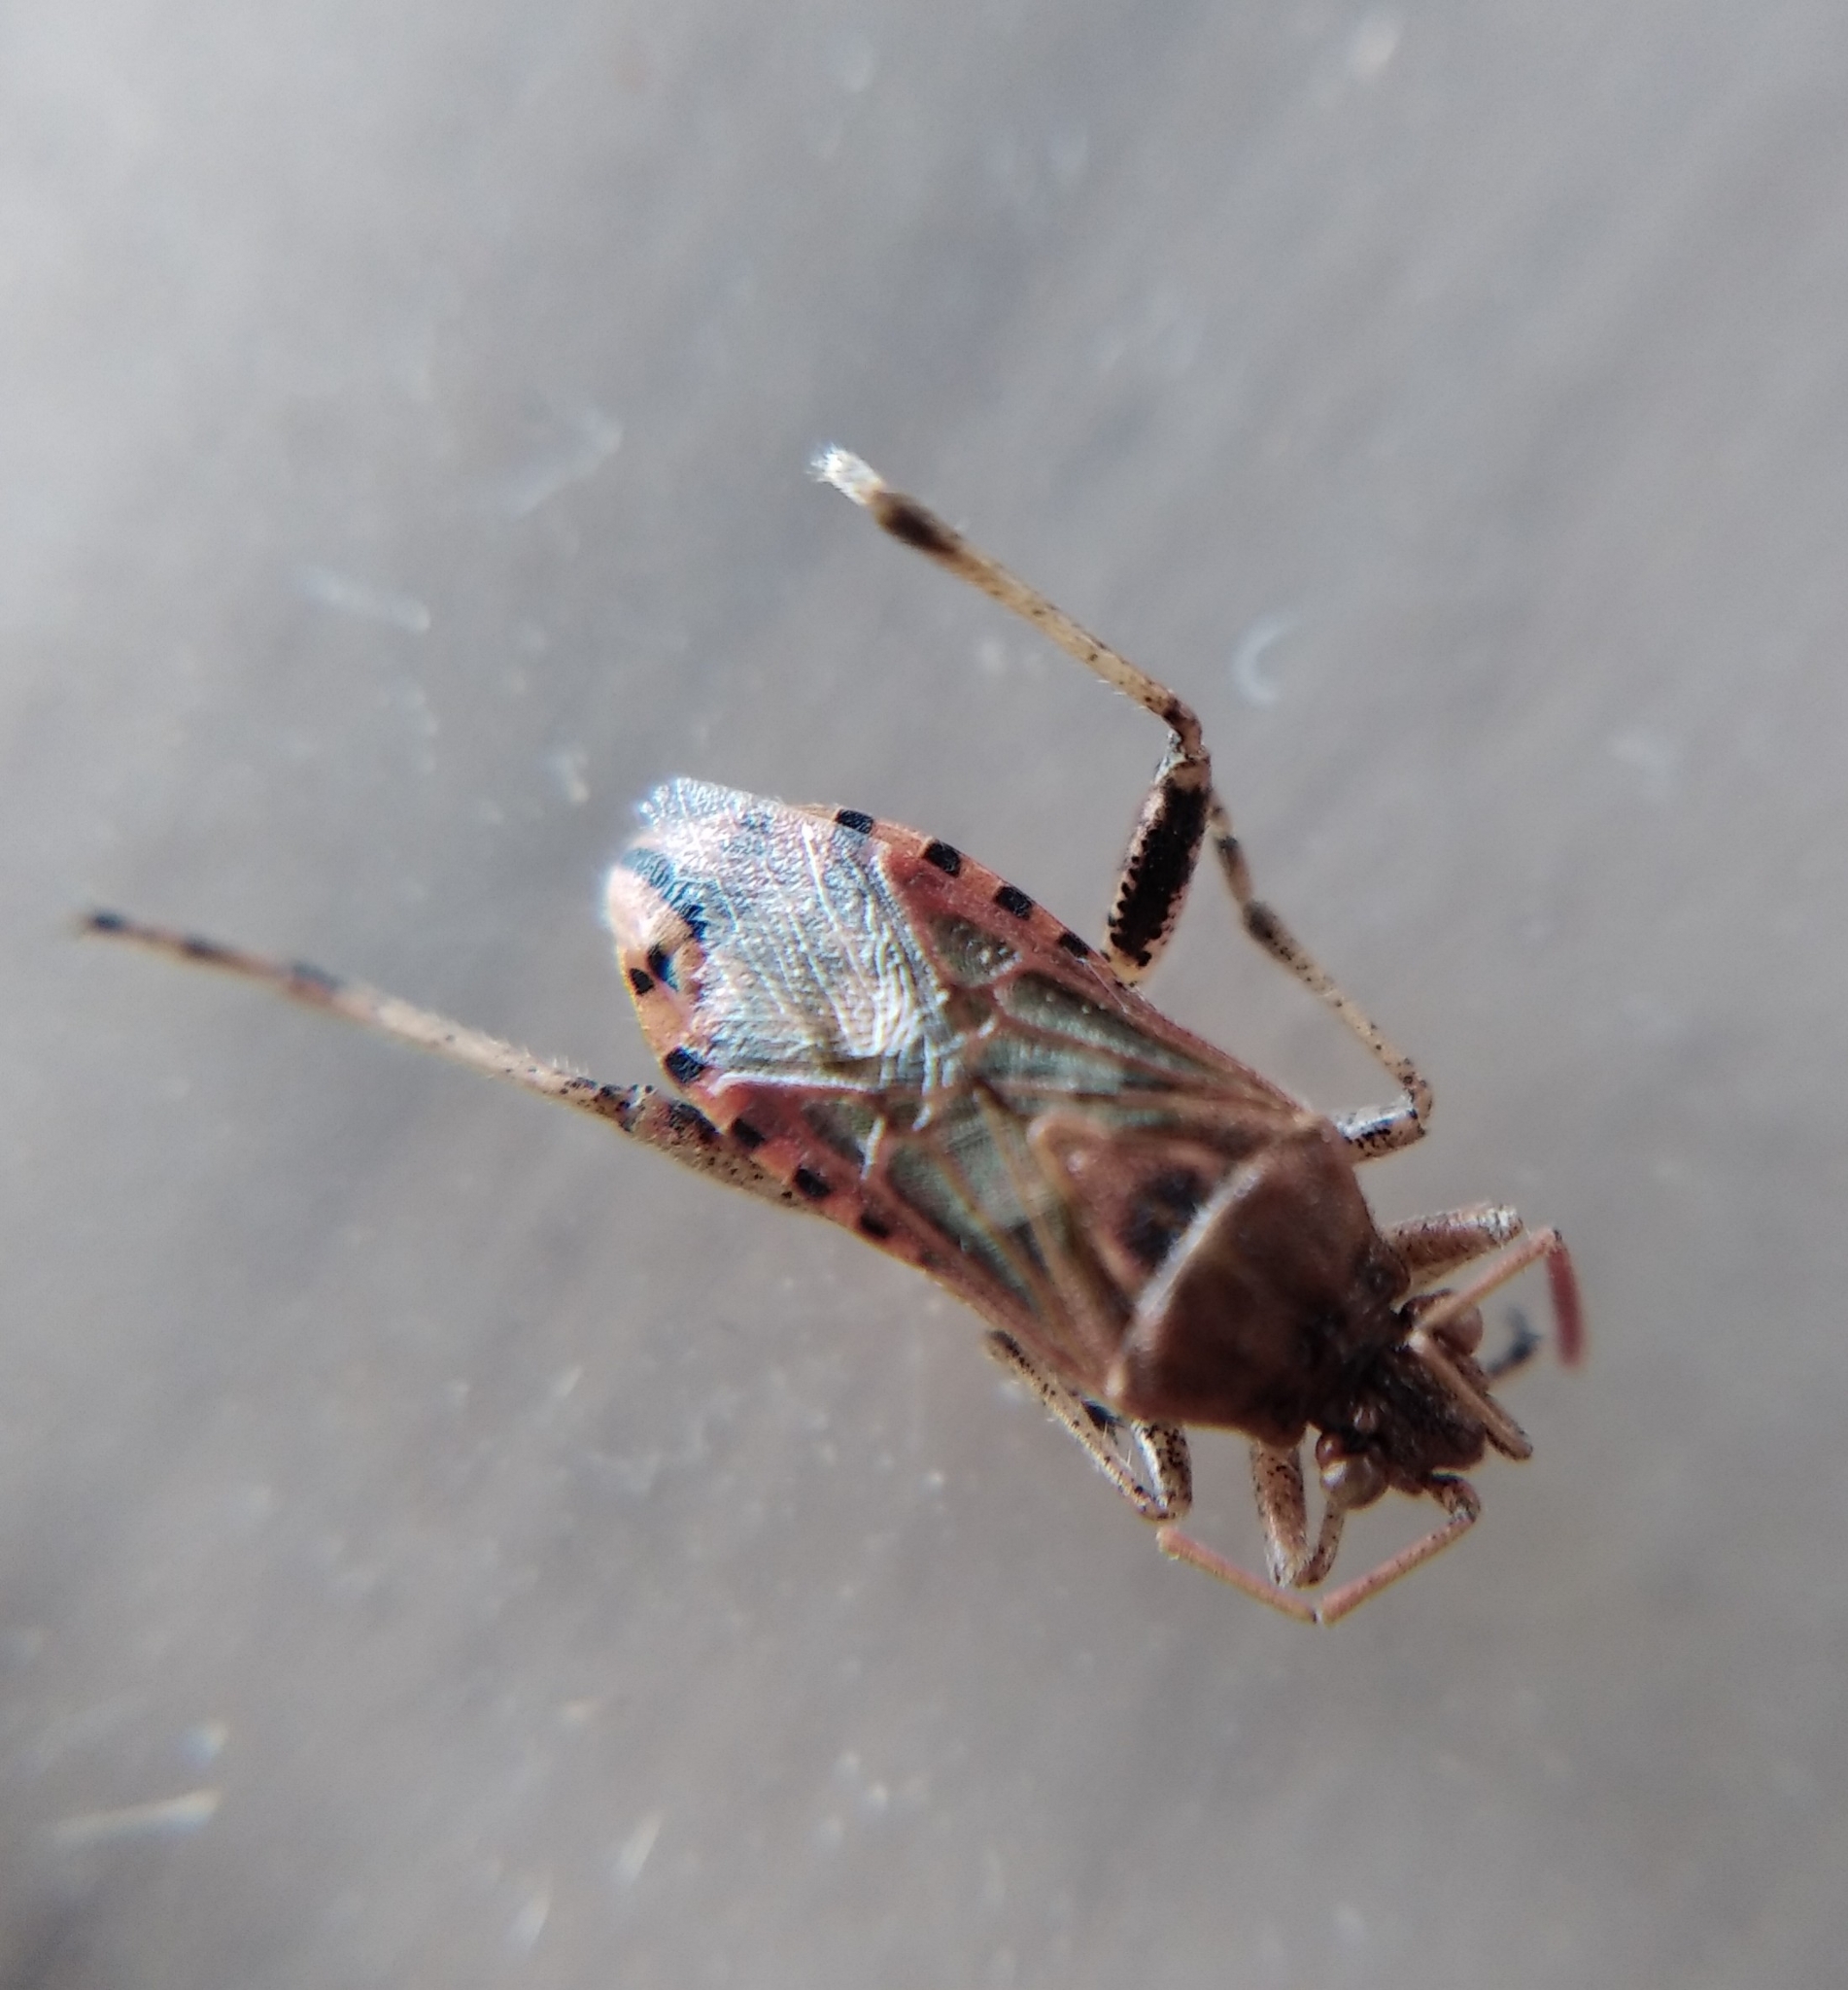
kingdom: Animalia
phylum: Arthropoda
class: Insecta
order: Hemiptera
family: Rhopalidae
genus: Stictopleurus
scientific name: Stictopleurus abutilon
